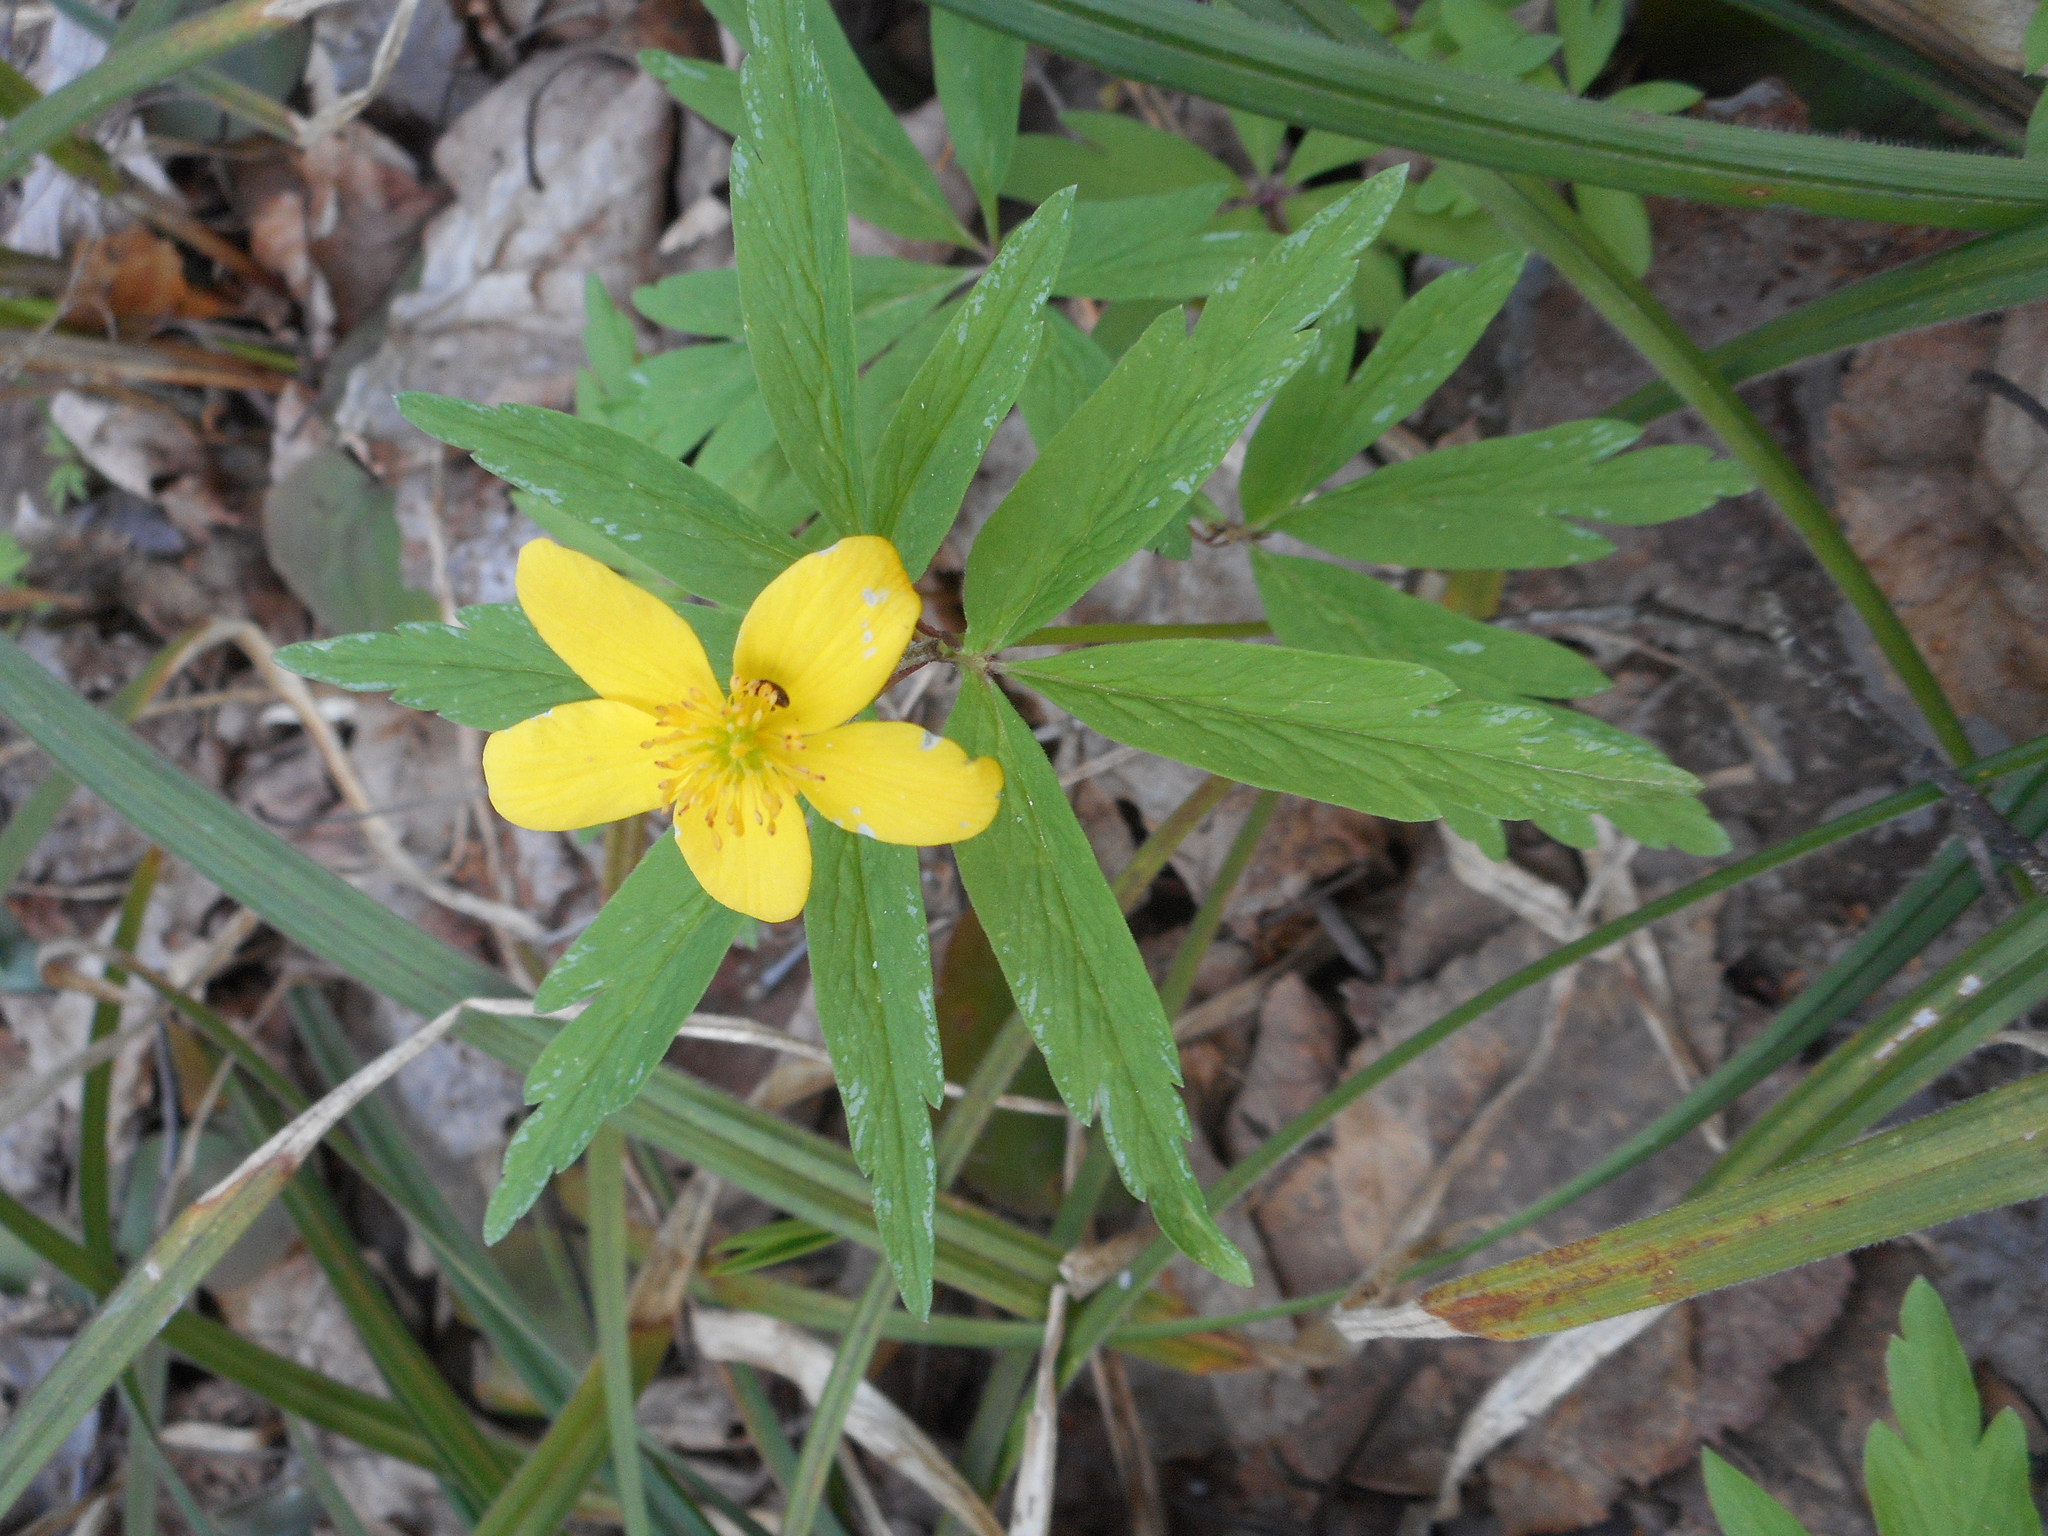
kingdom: Plantae
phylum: Tracheophyta
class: Magnoliopsida
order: Ranunculales
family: Ranunculaceae
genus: Anemone
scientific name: Anemone ranunculoides
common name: Yellow anemone
